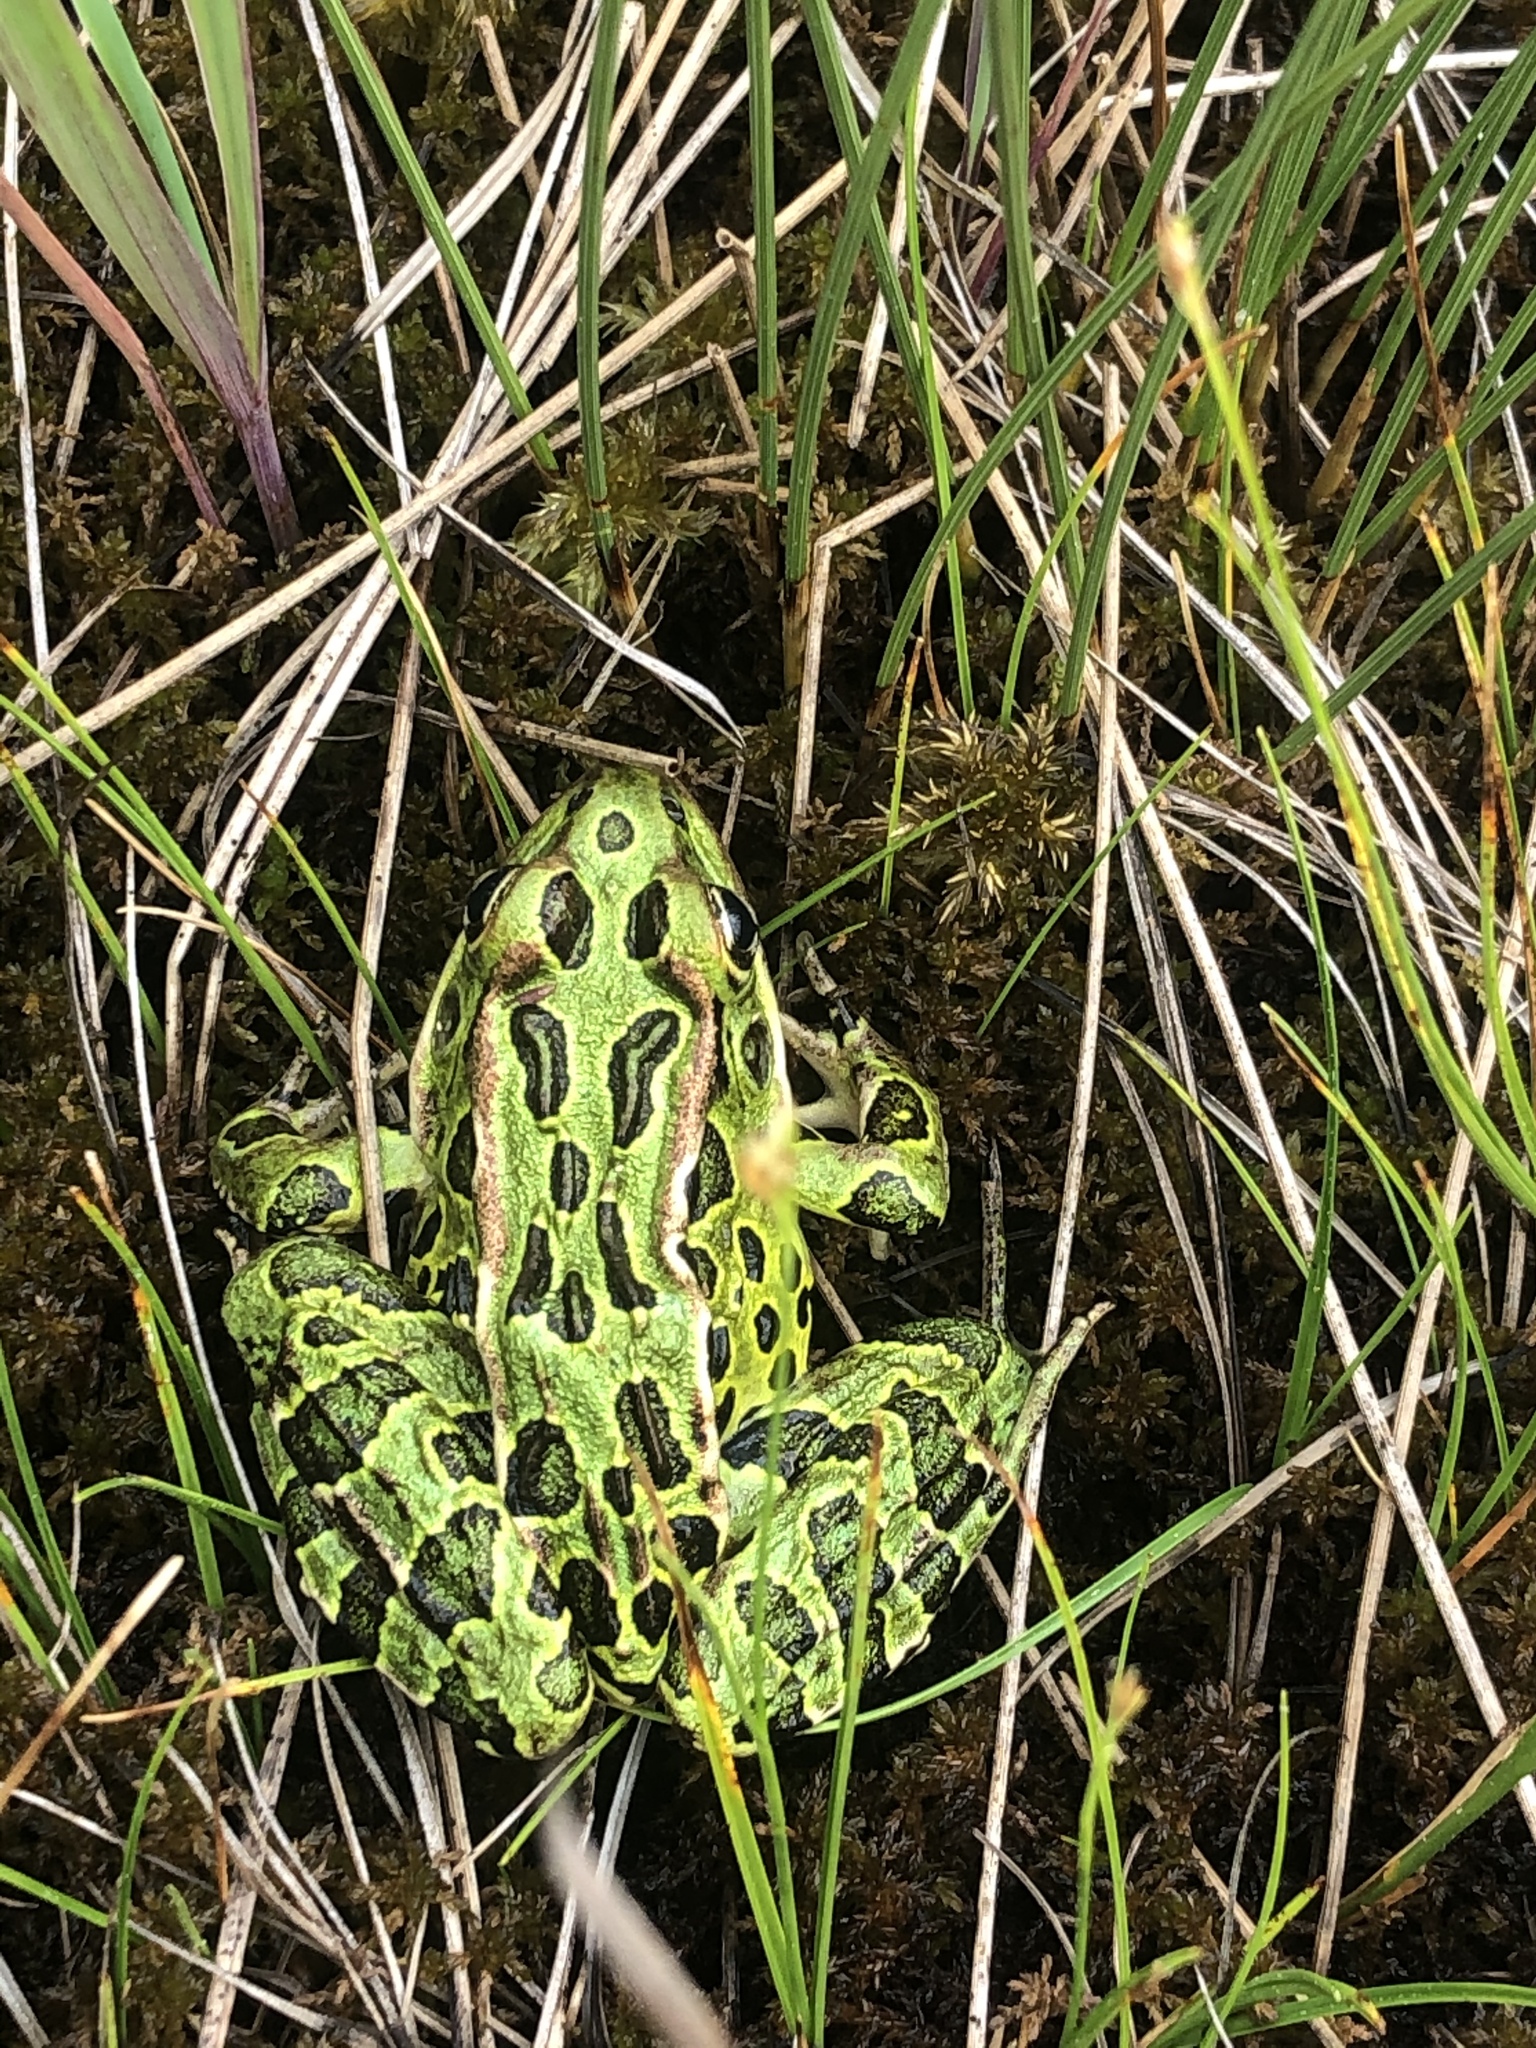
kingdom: Animalia
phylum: Chordata
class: Amphibia
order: Anura
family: Ranidae
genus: Lithobates
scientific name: Lithobates pipiens
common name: Northern leopard frog
